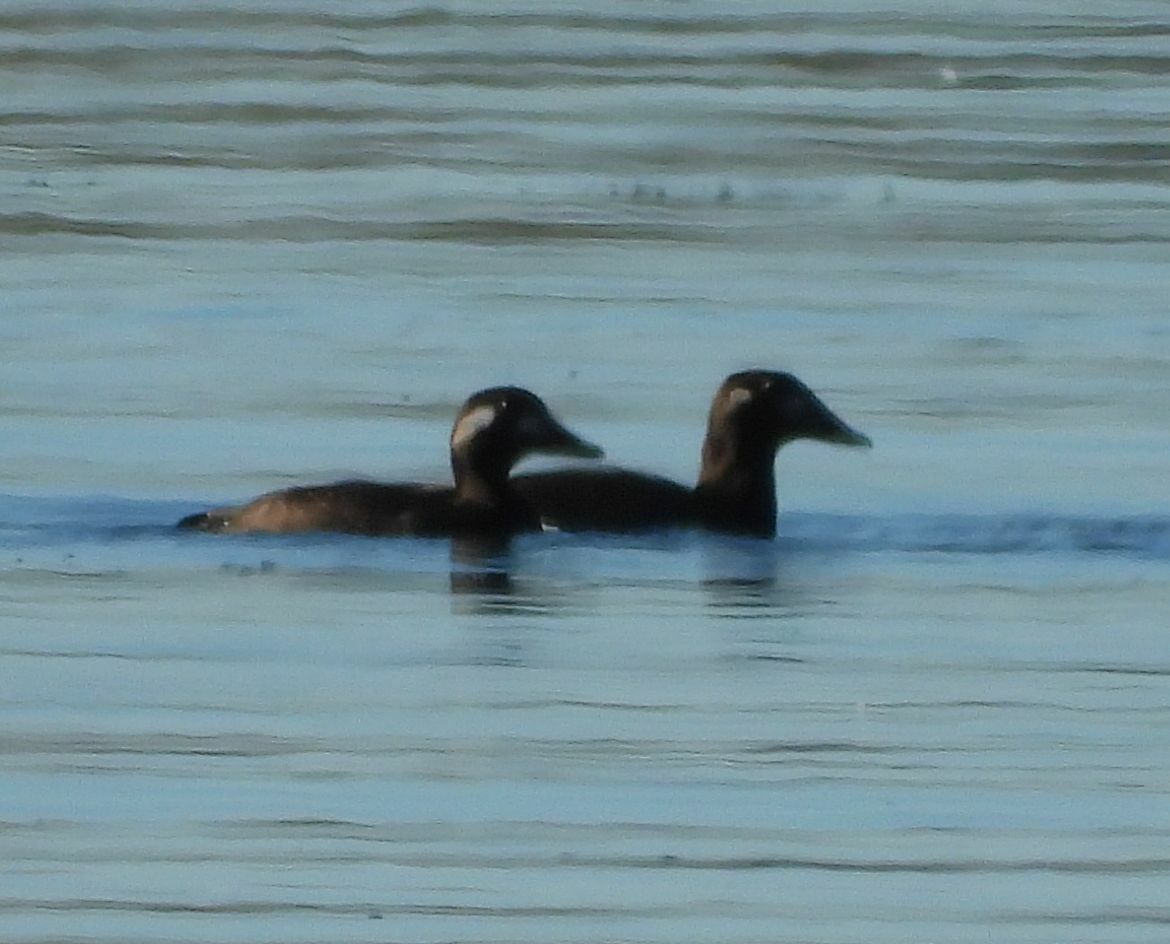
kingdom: Animalia
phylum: Chordata
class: Aves
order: Anseriformes
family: Anatidae
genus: Melanitta
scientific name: Melanitta deglandi
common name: White-winged scoter
